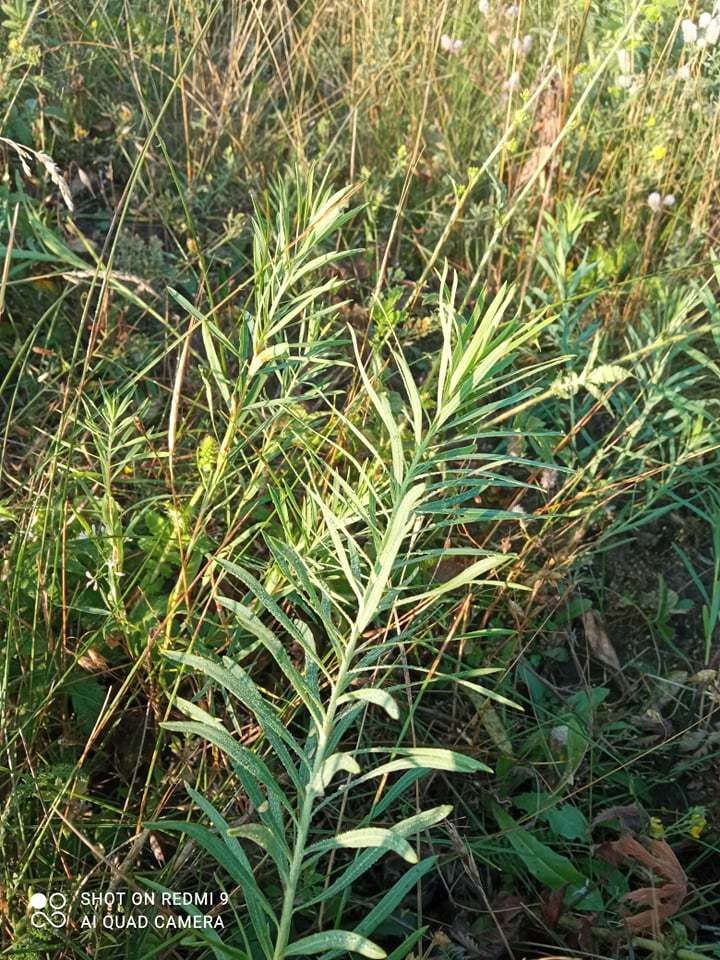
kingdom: Plantae
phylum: Tracheophyta
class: Magnoliopsida
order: Malpighiales
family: Euphorbiaceae
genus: Euphorbia
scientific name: Euphorbia seguieriana
